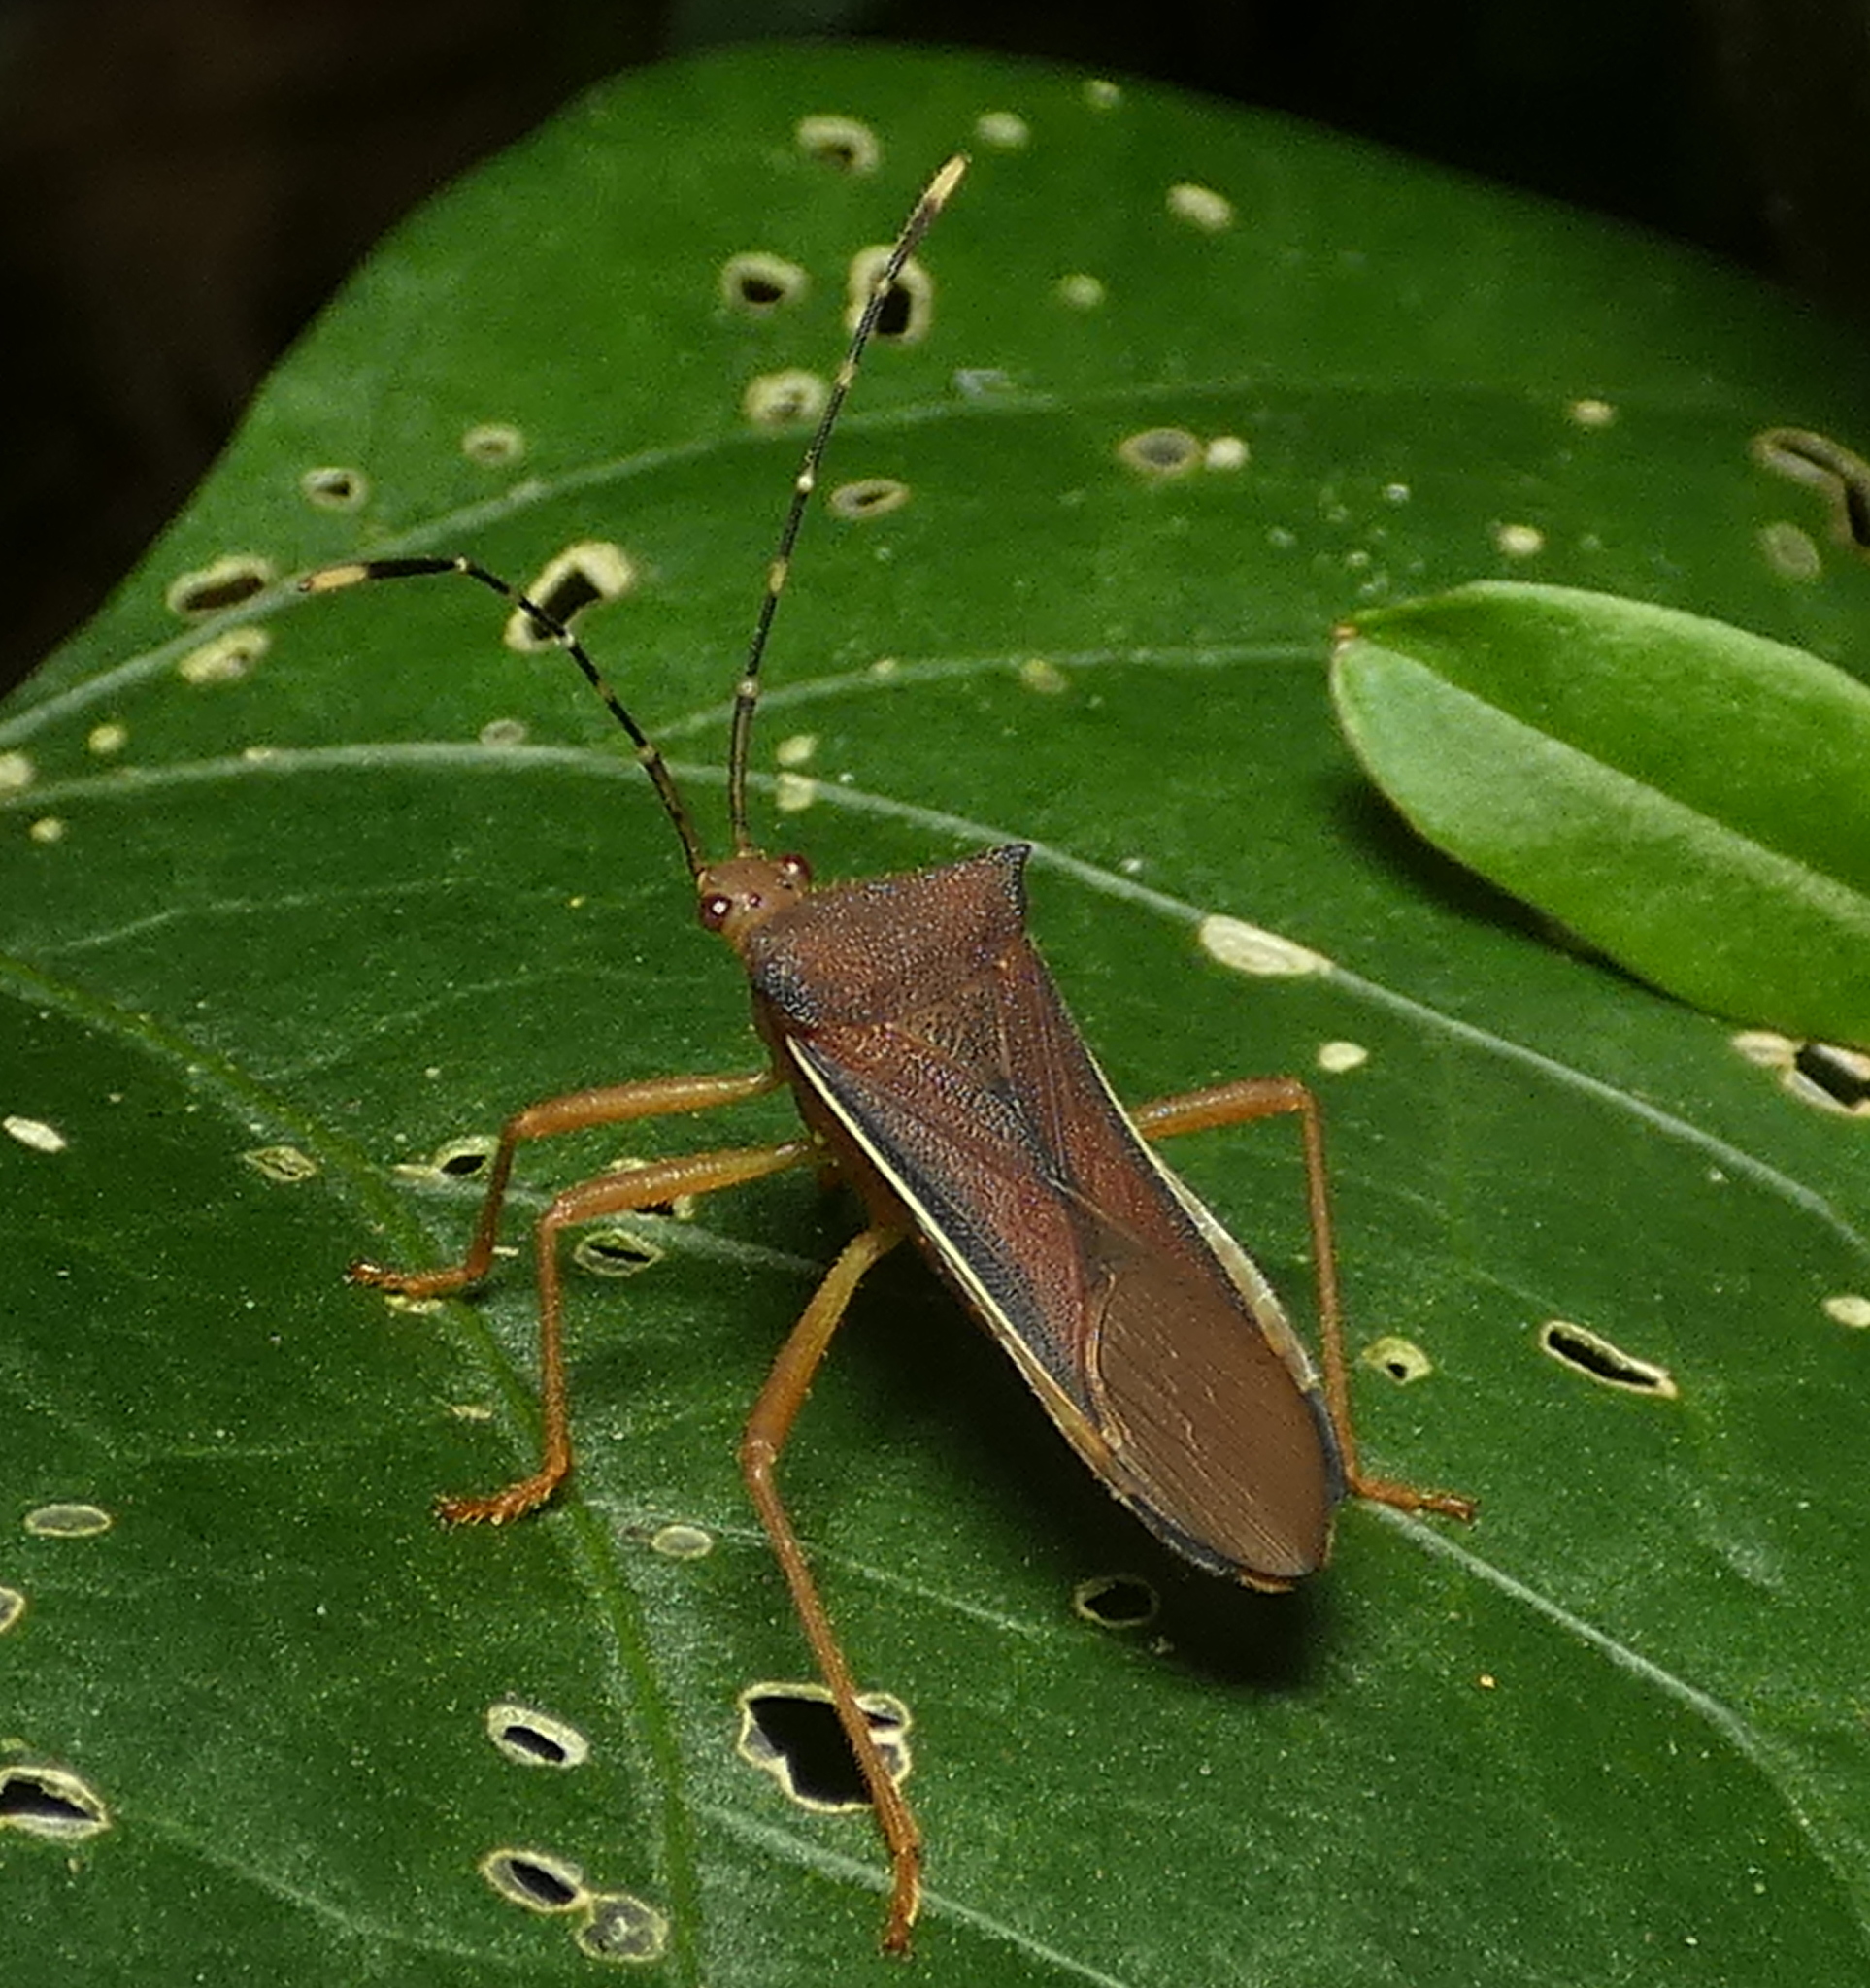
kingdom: Animalia
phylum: Arthropoda
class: Insecta
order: Hemiptera
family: Coreidae
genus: Anasa
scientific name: Anasa varicornis
